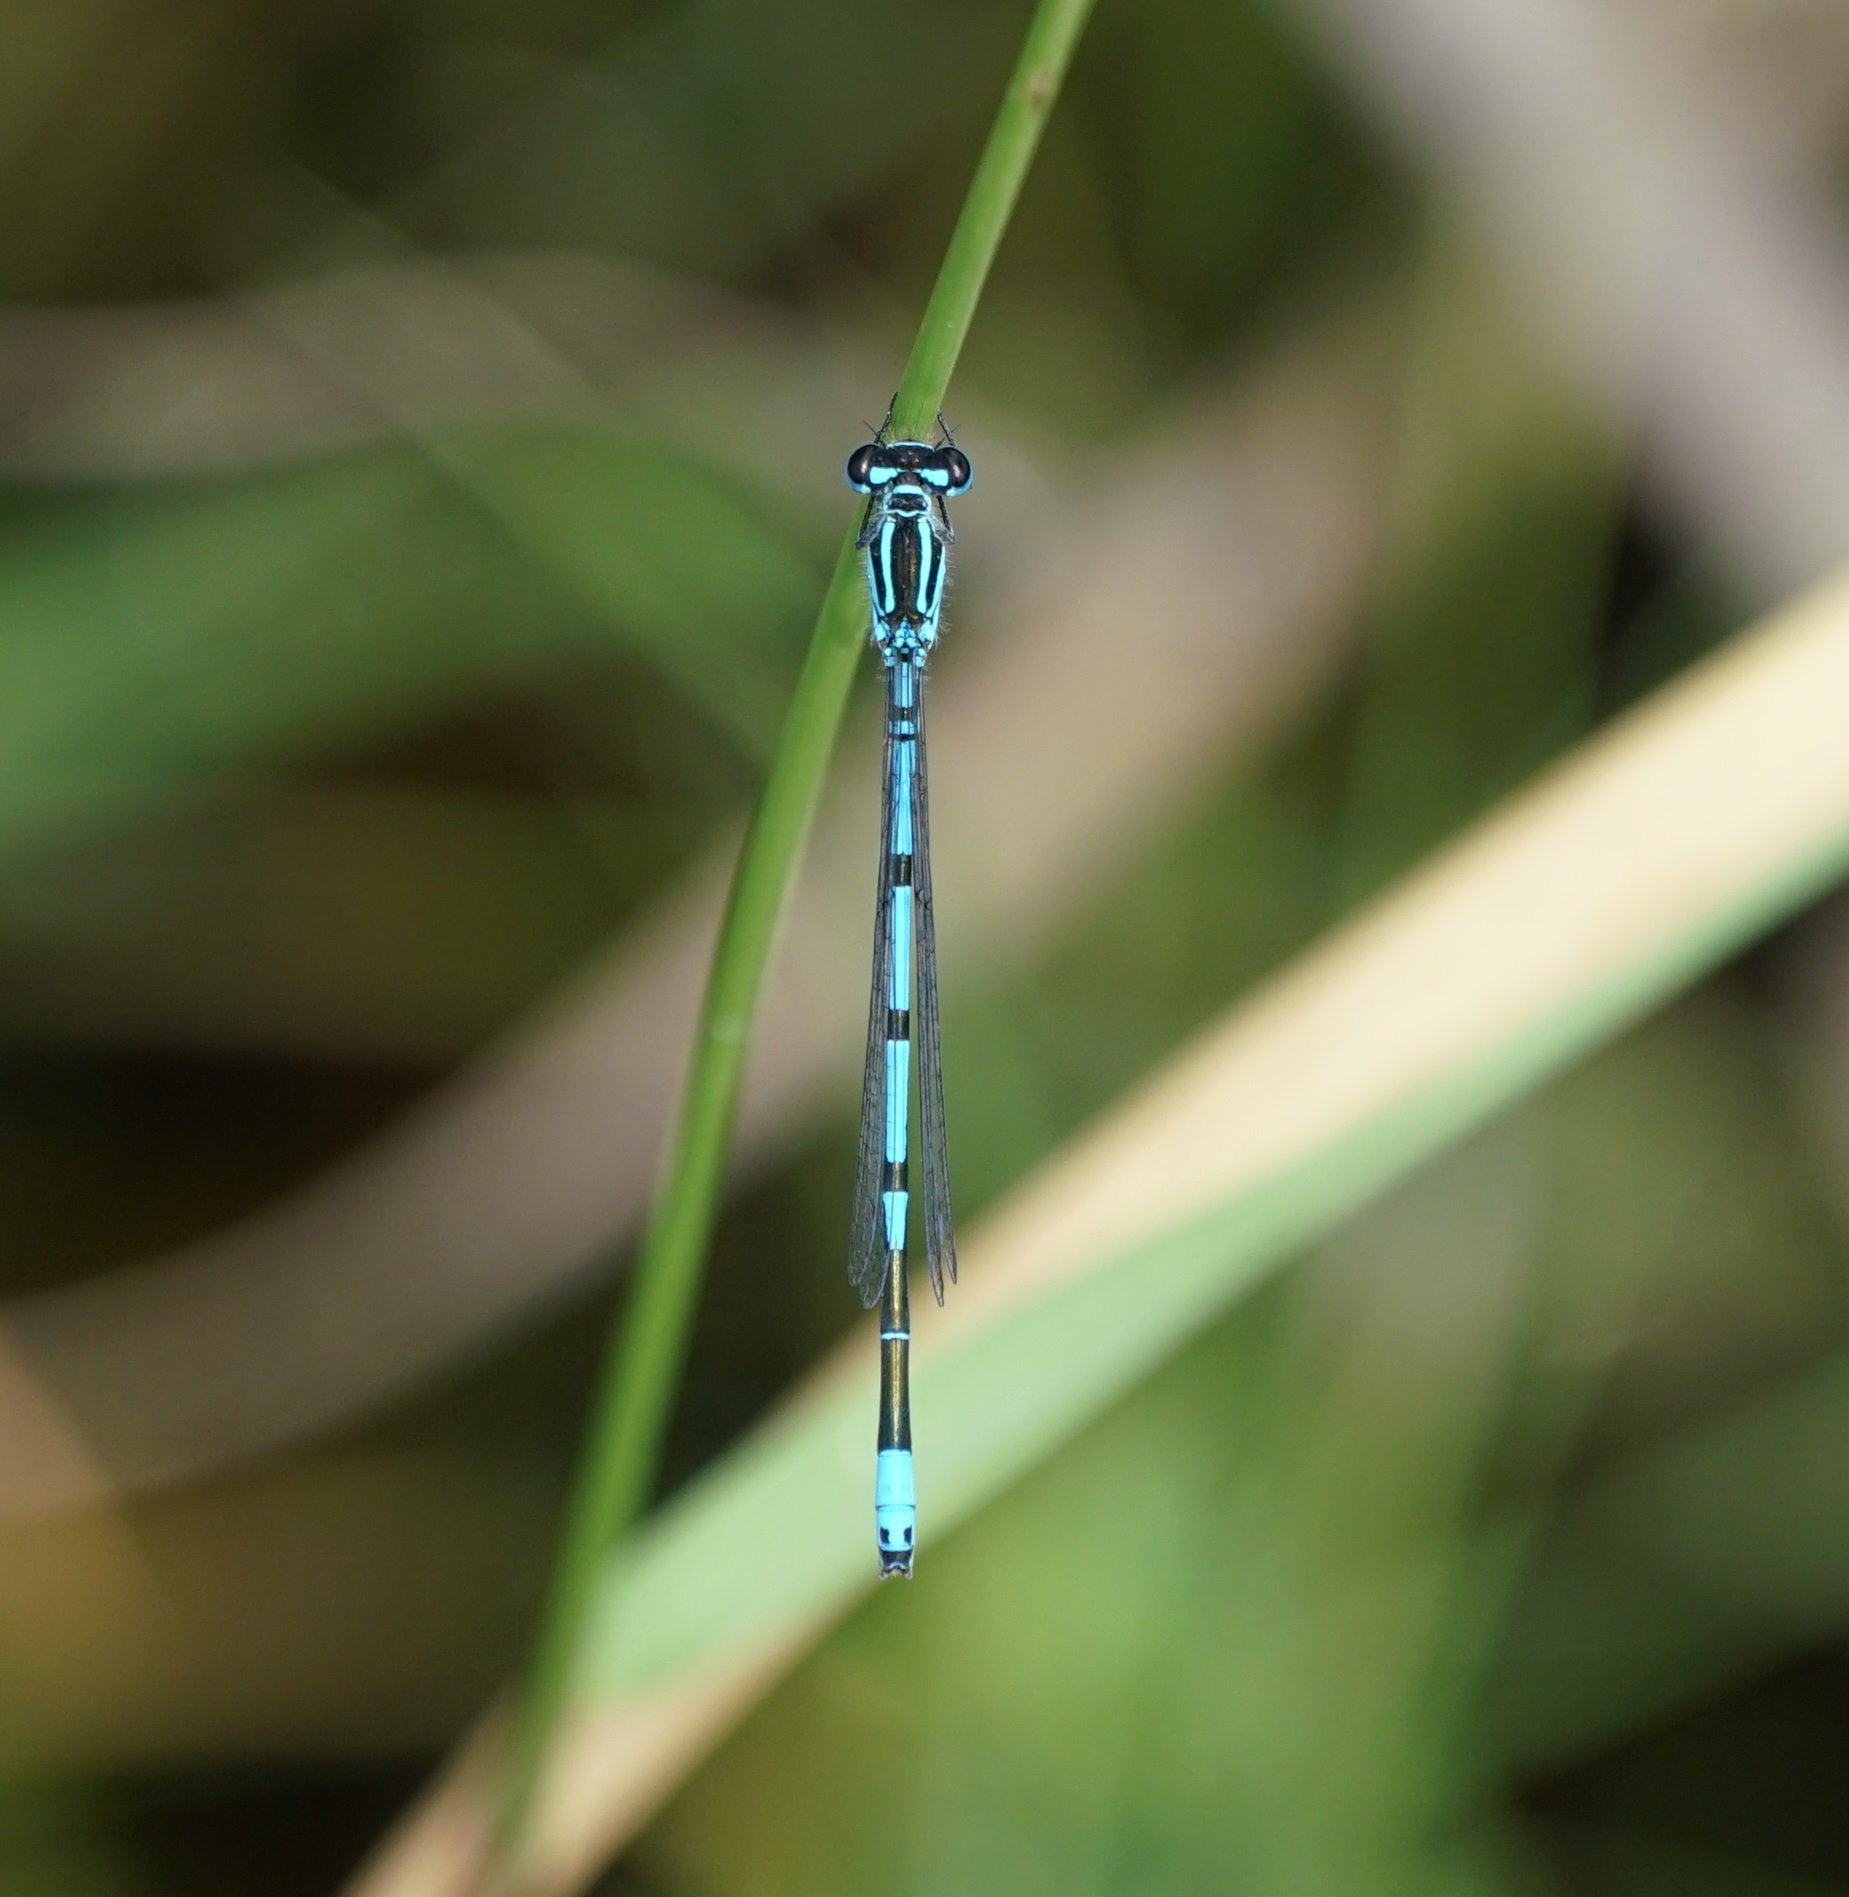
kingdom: Animalia
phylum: Arthropoda
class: Insecta
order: Odonata
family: Coenagrionidae
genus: Coenagrion
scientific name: Coenagrion puella
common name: Azure damselfly
